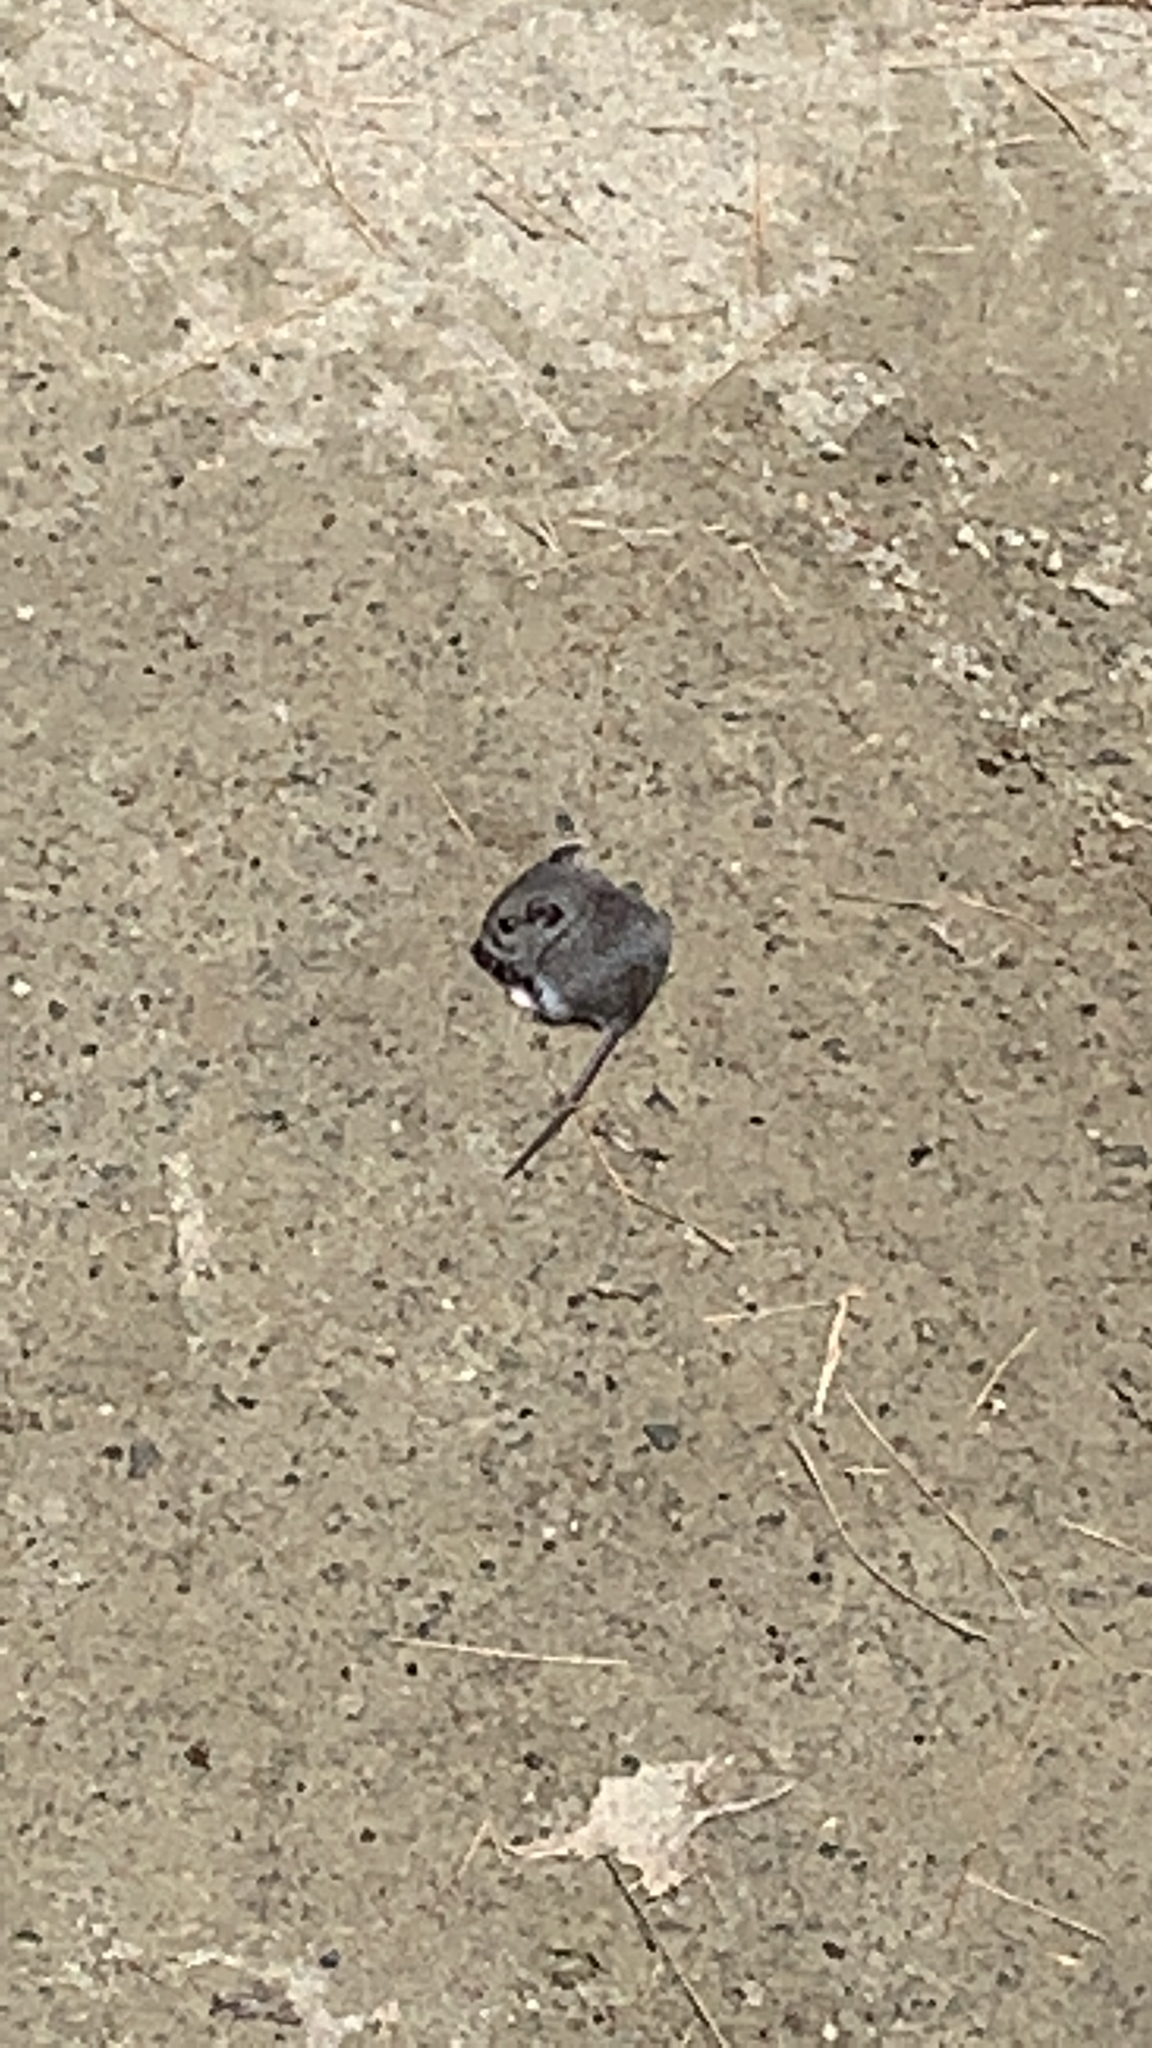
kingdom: Animalia
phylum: Chordata
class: Mammalia
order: Rodentia
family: Cricetidae
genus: Peromyscus
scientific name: Peromyscus
